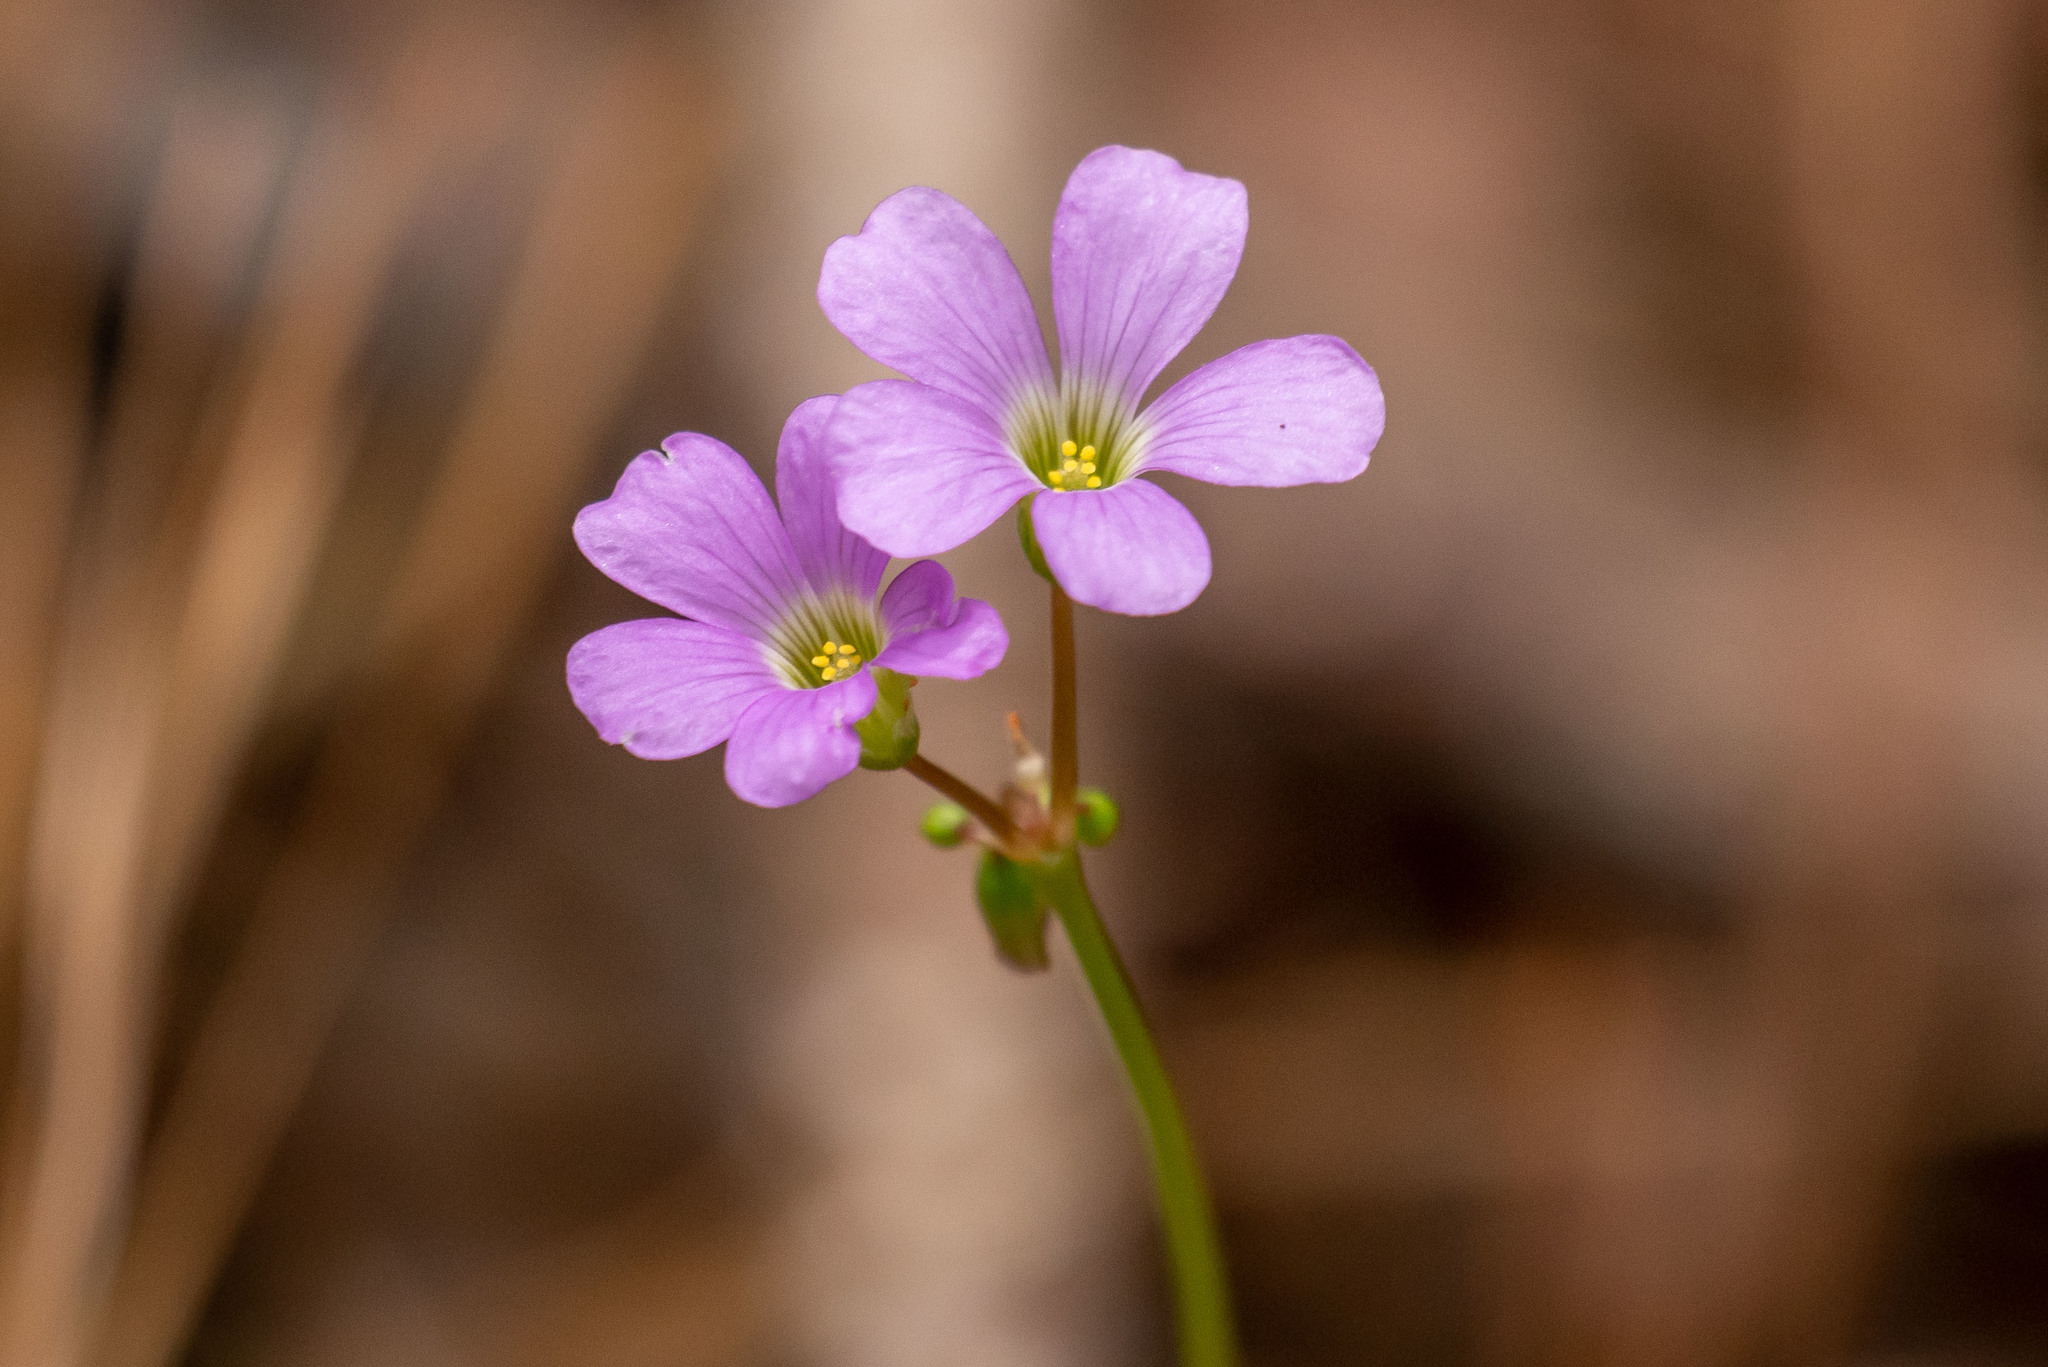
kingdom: Plantae
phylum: Tracheophyta
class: Magnoliopsida
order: Oxalidales
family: Oxalidaceae
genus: Oxalis
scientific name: Oxalis violacea
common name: Violet wood-sorrel
